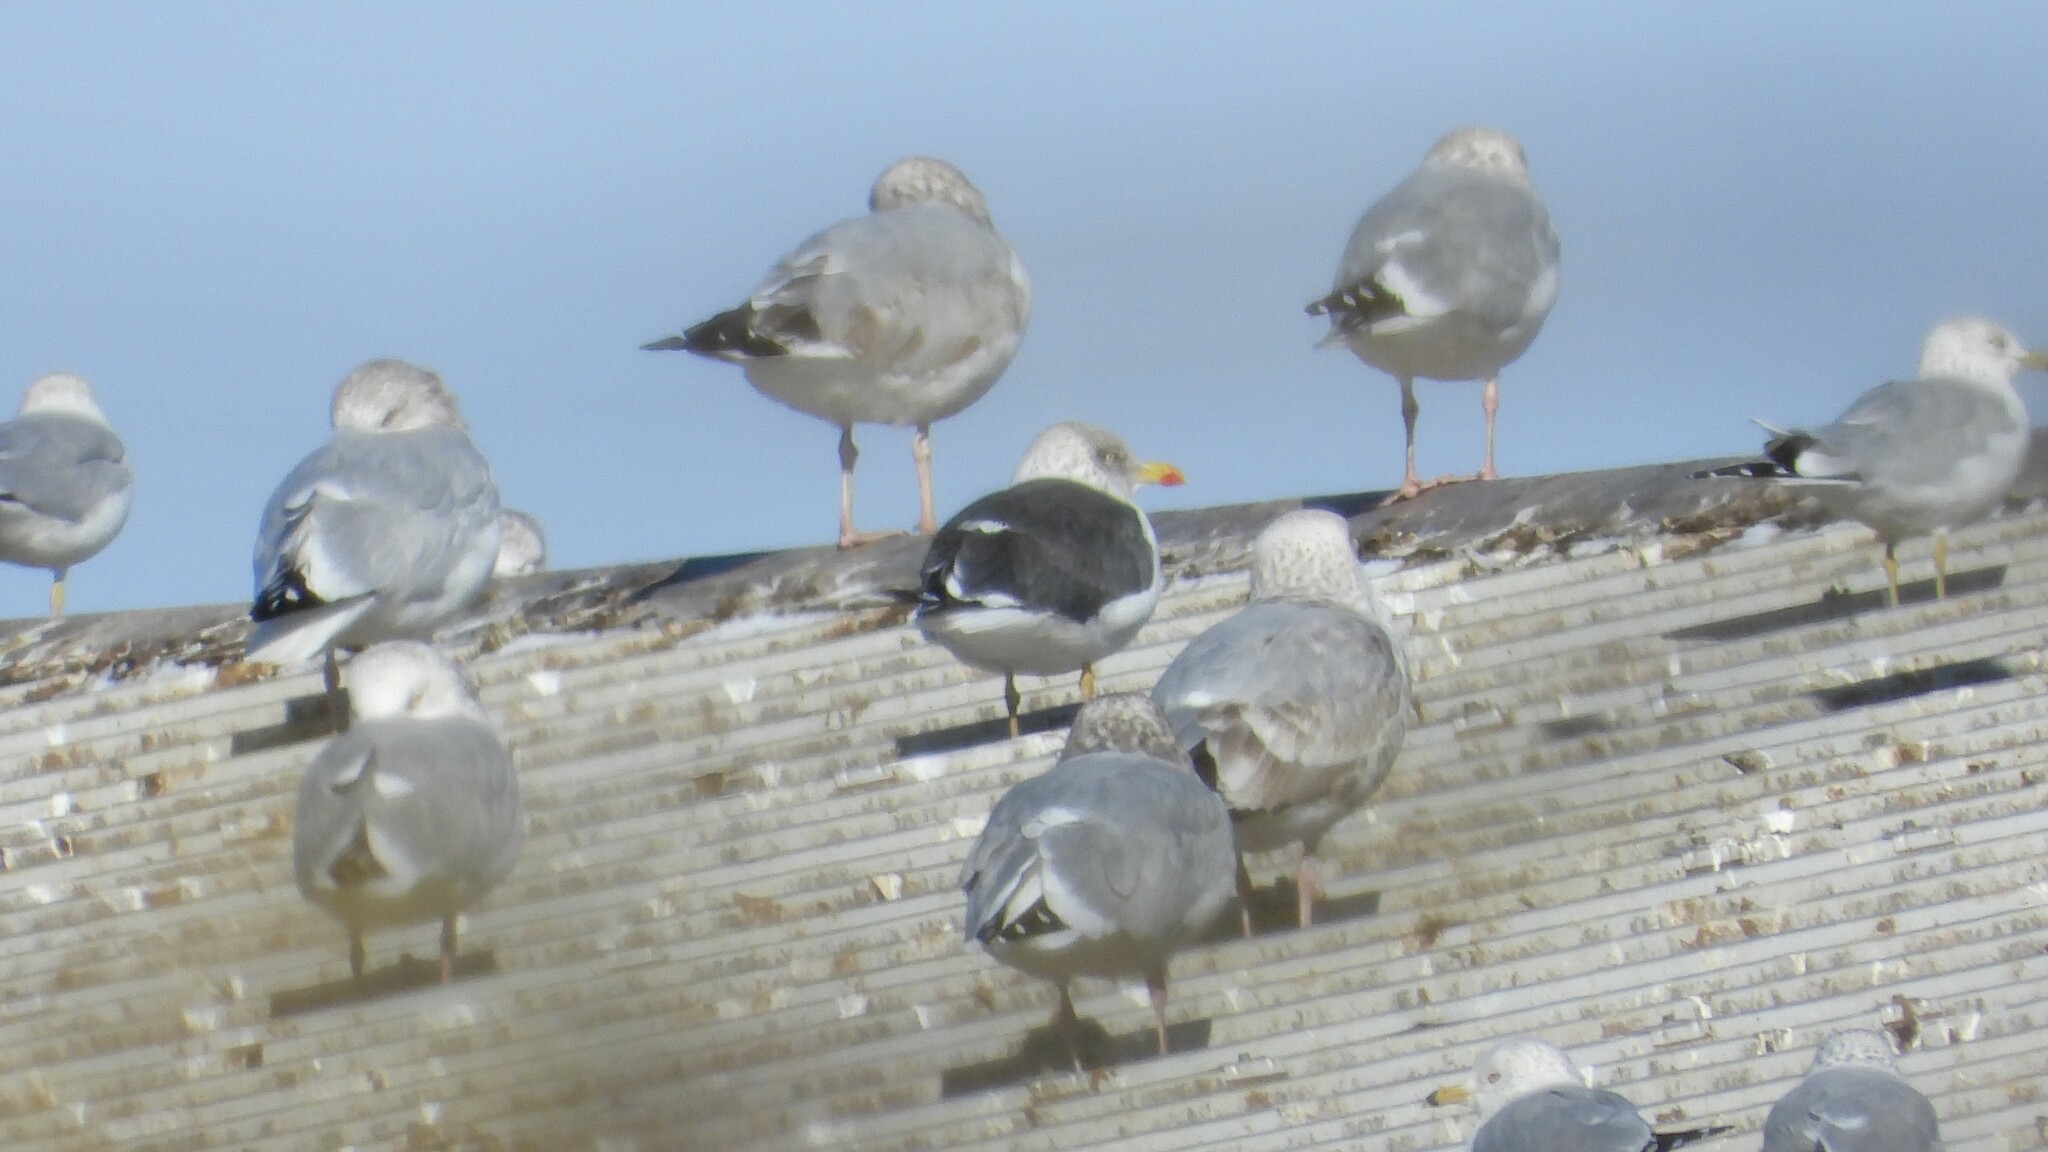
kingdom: Animalia
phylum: Chordata
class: Aves
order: Charadriiformes
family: Laridae
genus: Larus
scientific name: Larus fuscus
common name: Lesser black-backed gull
